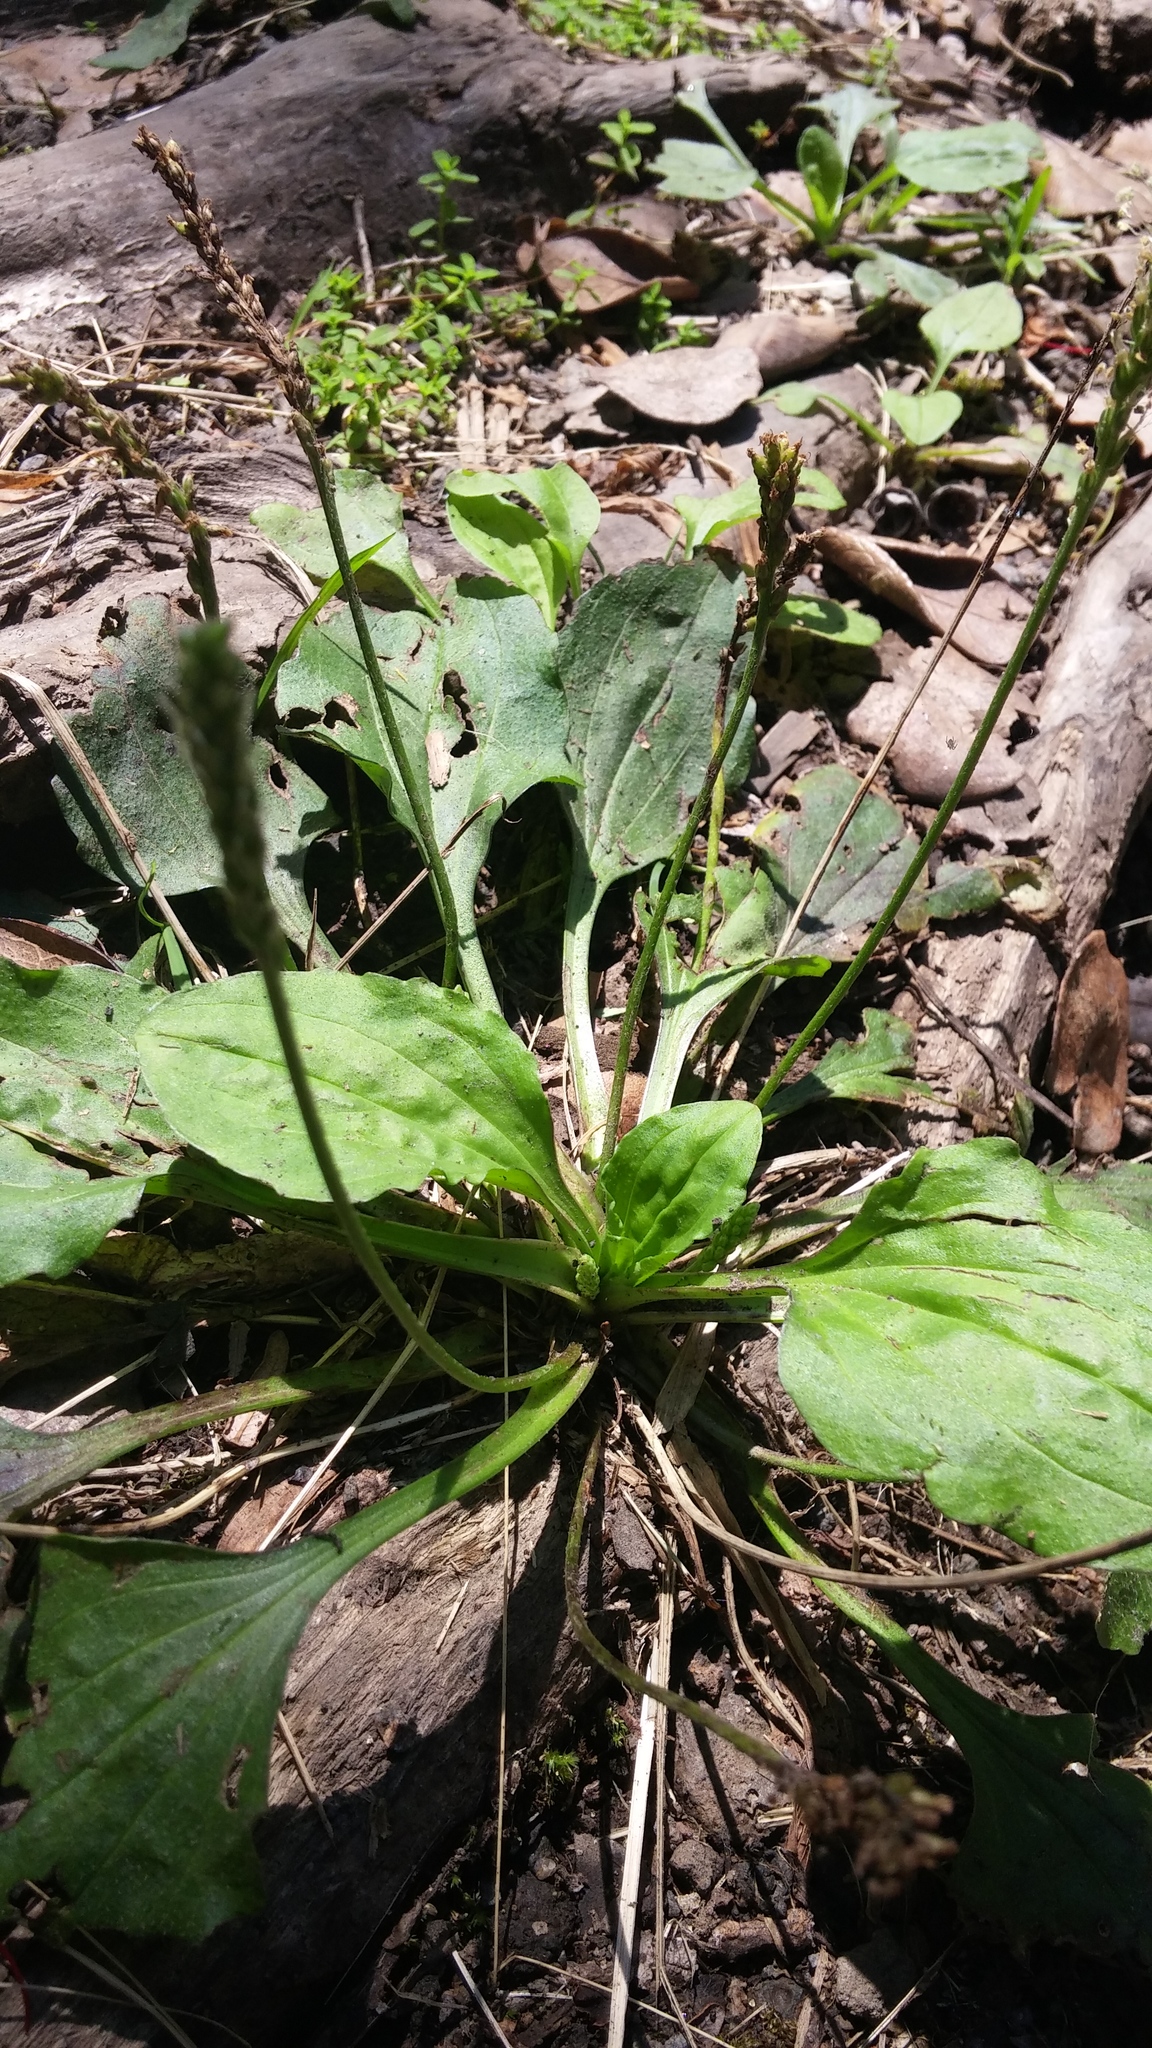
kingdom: Plantae
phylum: Tracheophyta
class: Magnoliopsida
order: Lamiales
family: Plantaginaceae
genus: Plantago
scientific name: Plantago major
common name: Common plantain
